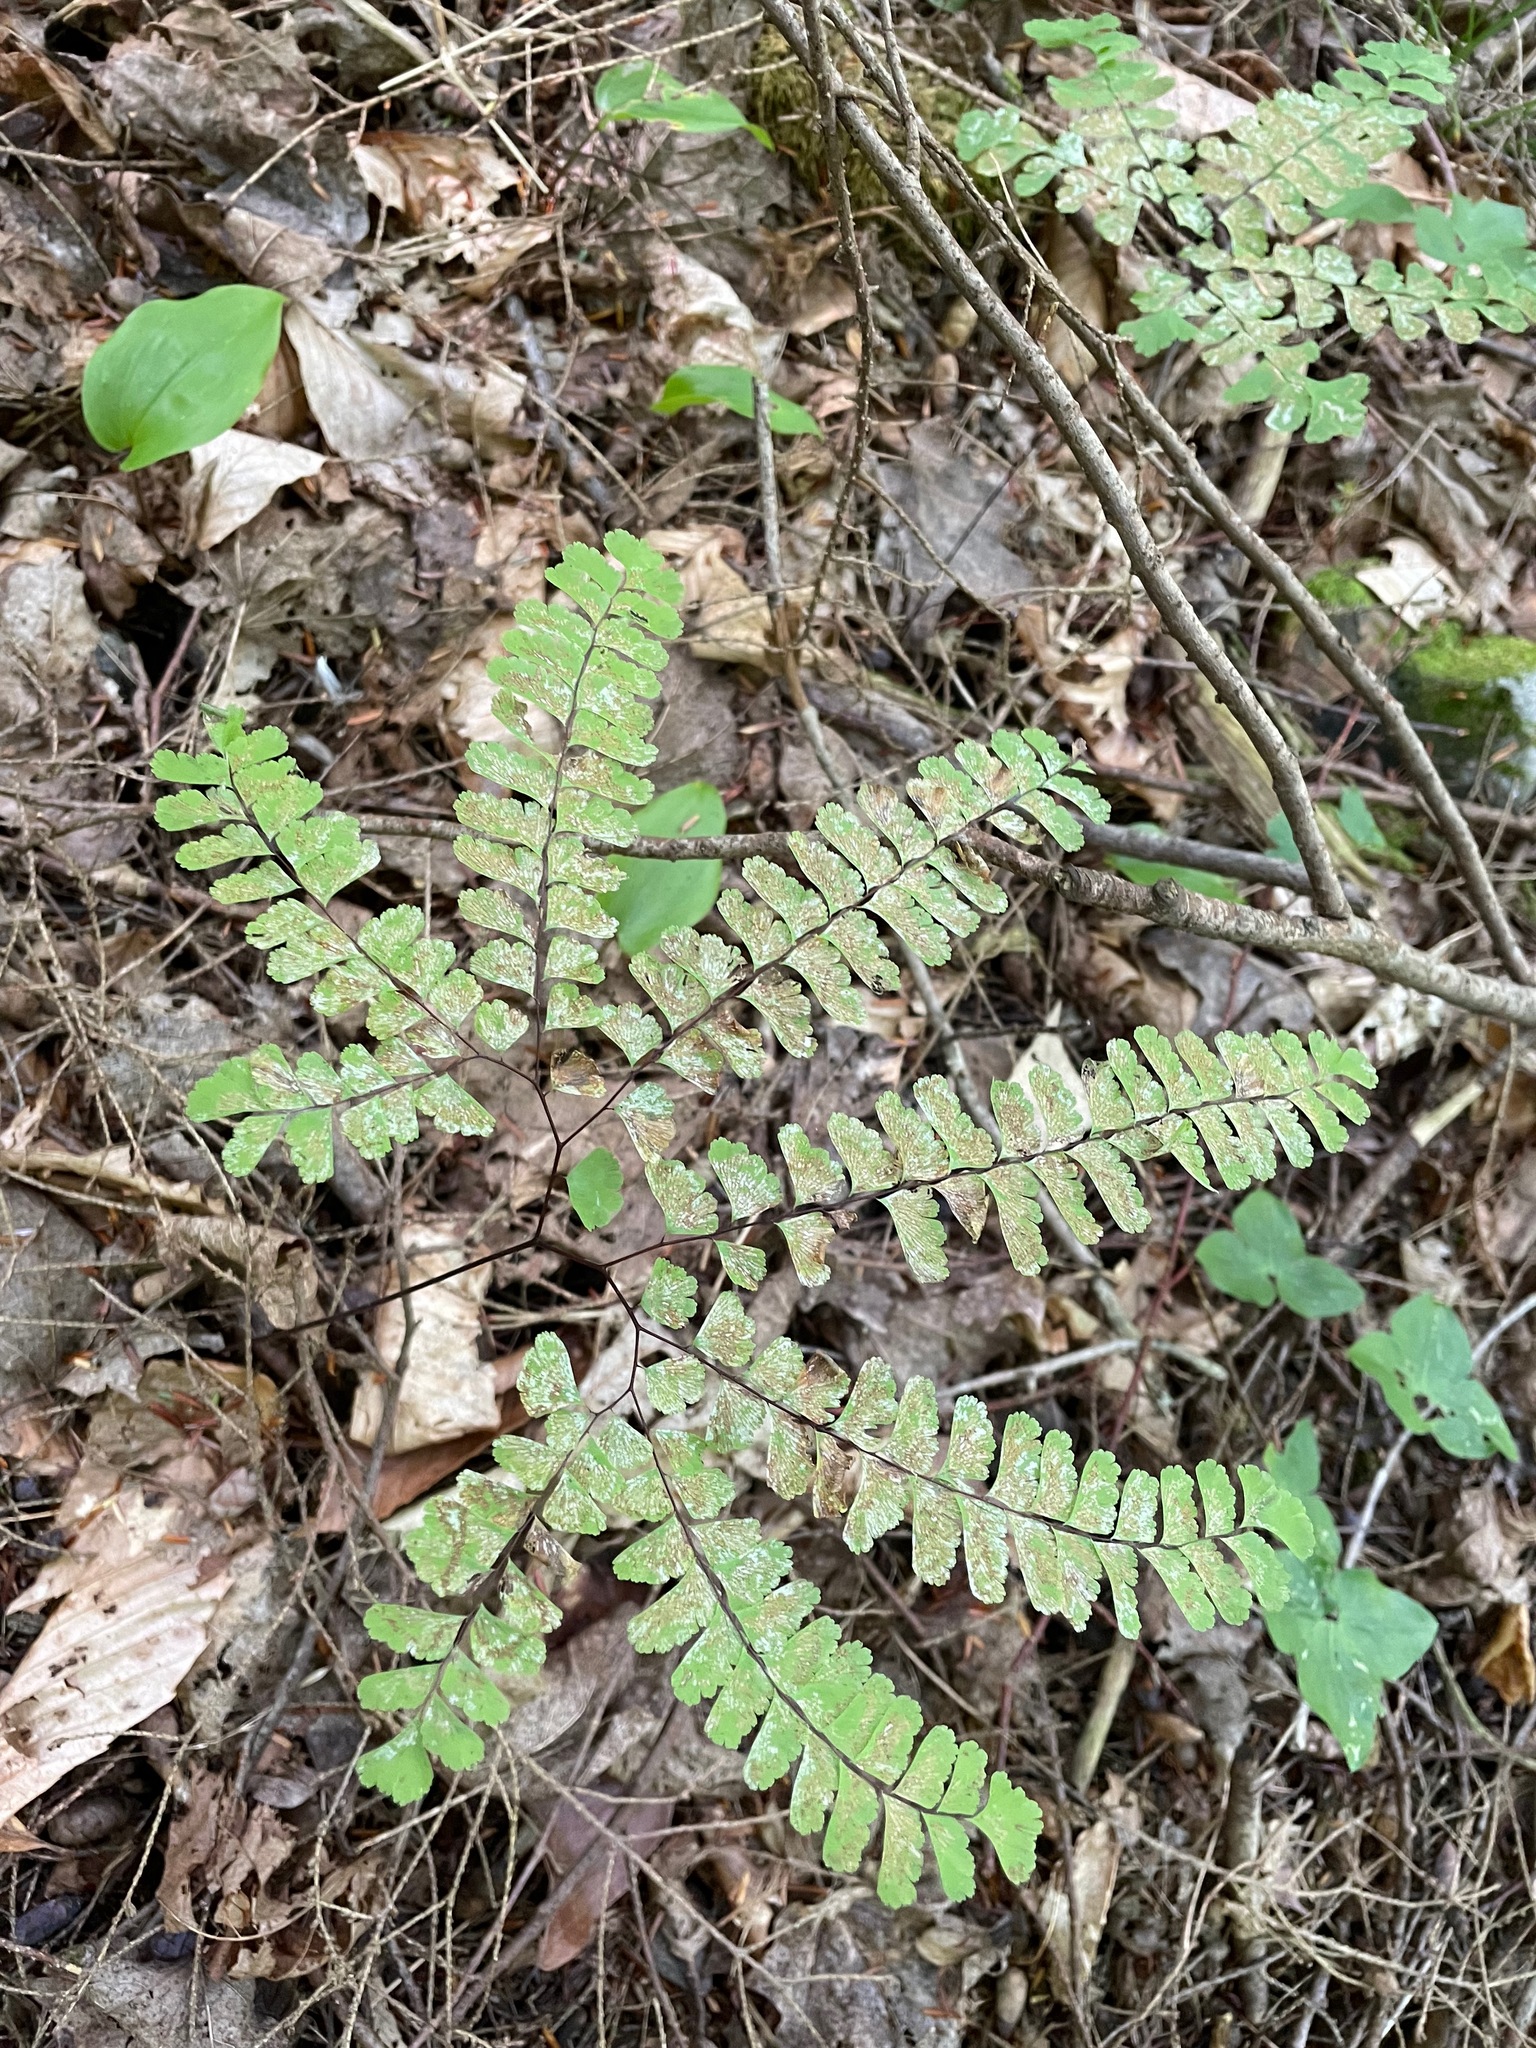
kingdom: Plantae
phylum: Tracheophyta
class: Polypodiopsida
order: Polypodiales
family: Pteridaceae
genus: Adiantum
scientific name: Adiantum pedatum
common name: Five-finger fern
